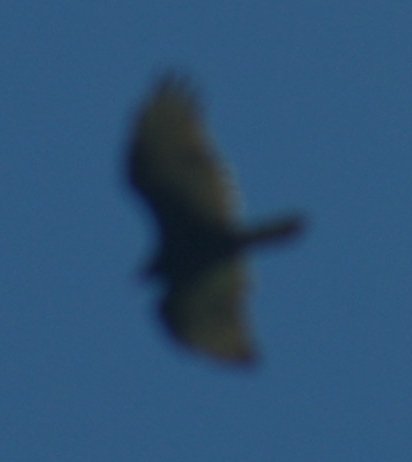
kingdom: Animalia
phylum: Chordata
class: Aves
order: Accipitriformes
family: Cathartidae
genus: Cathartes
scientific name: Cathartes aura
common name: Turkey vulture
